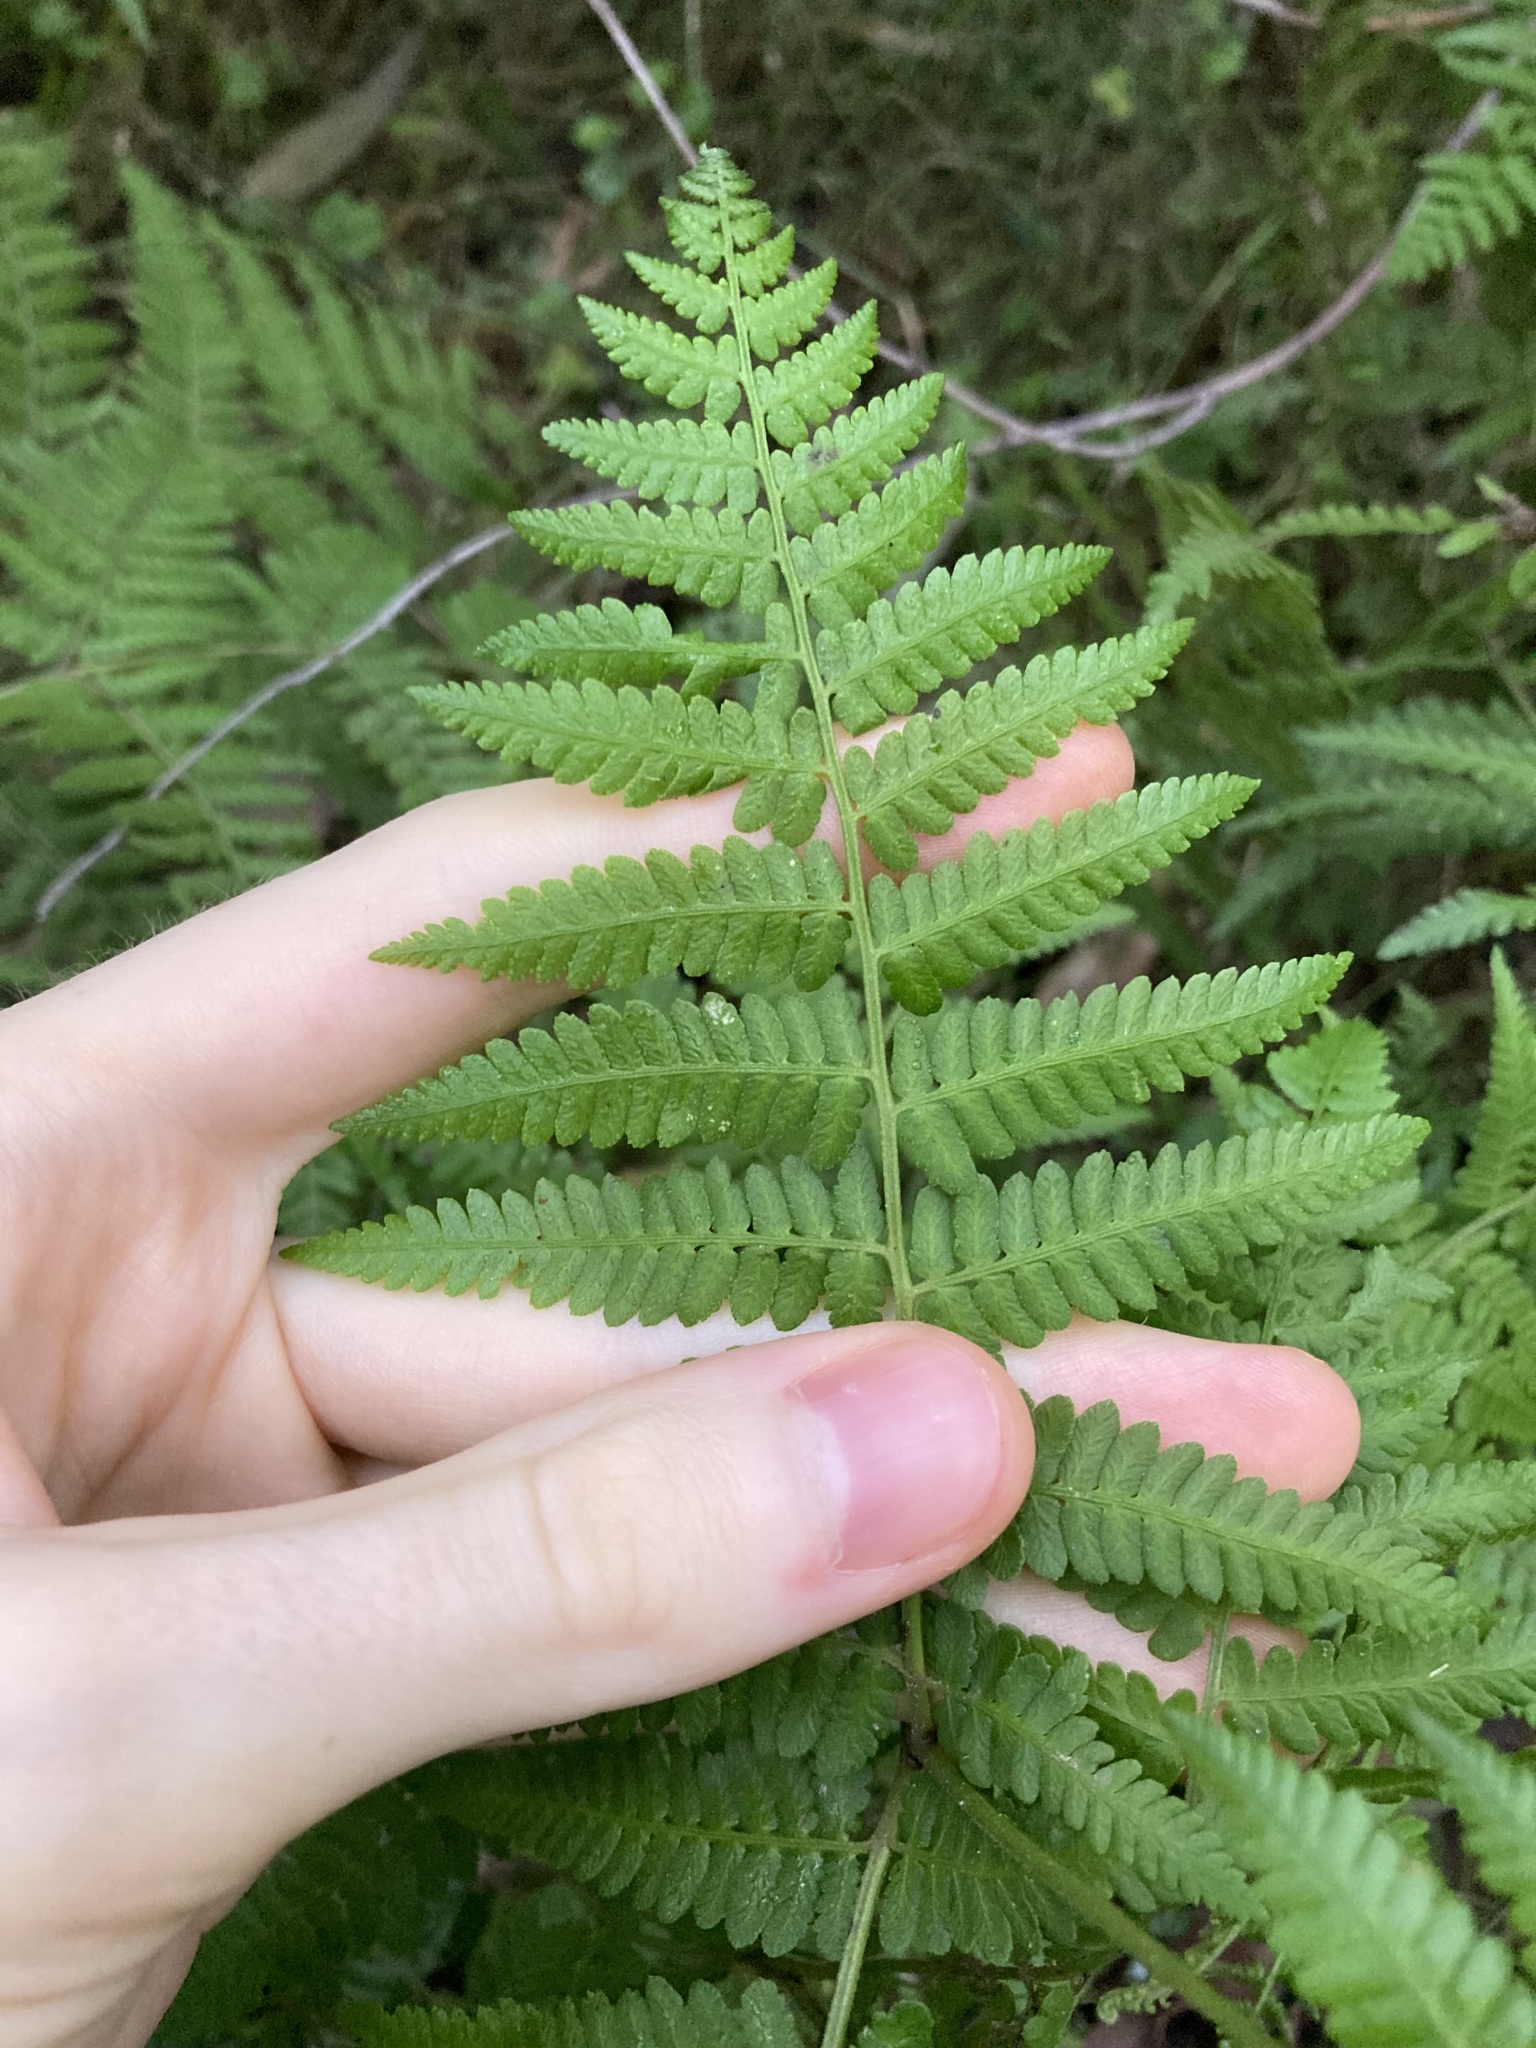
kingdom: Plantae
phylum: Tracheophyta
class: Polypodiopsida
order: Polypodiales
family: Dennstaedtiaceae
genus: Hypolepis
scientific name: Hypolepis muelleri
